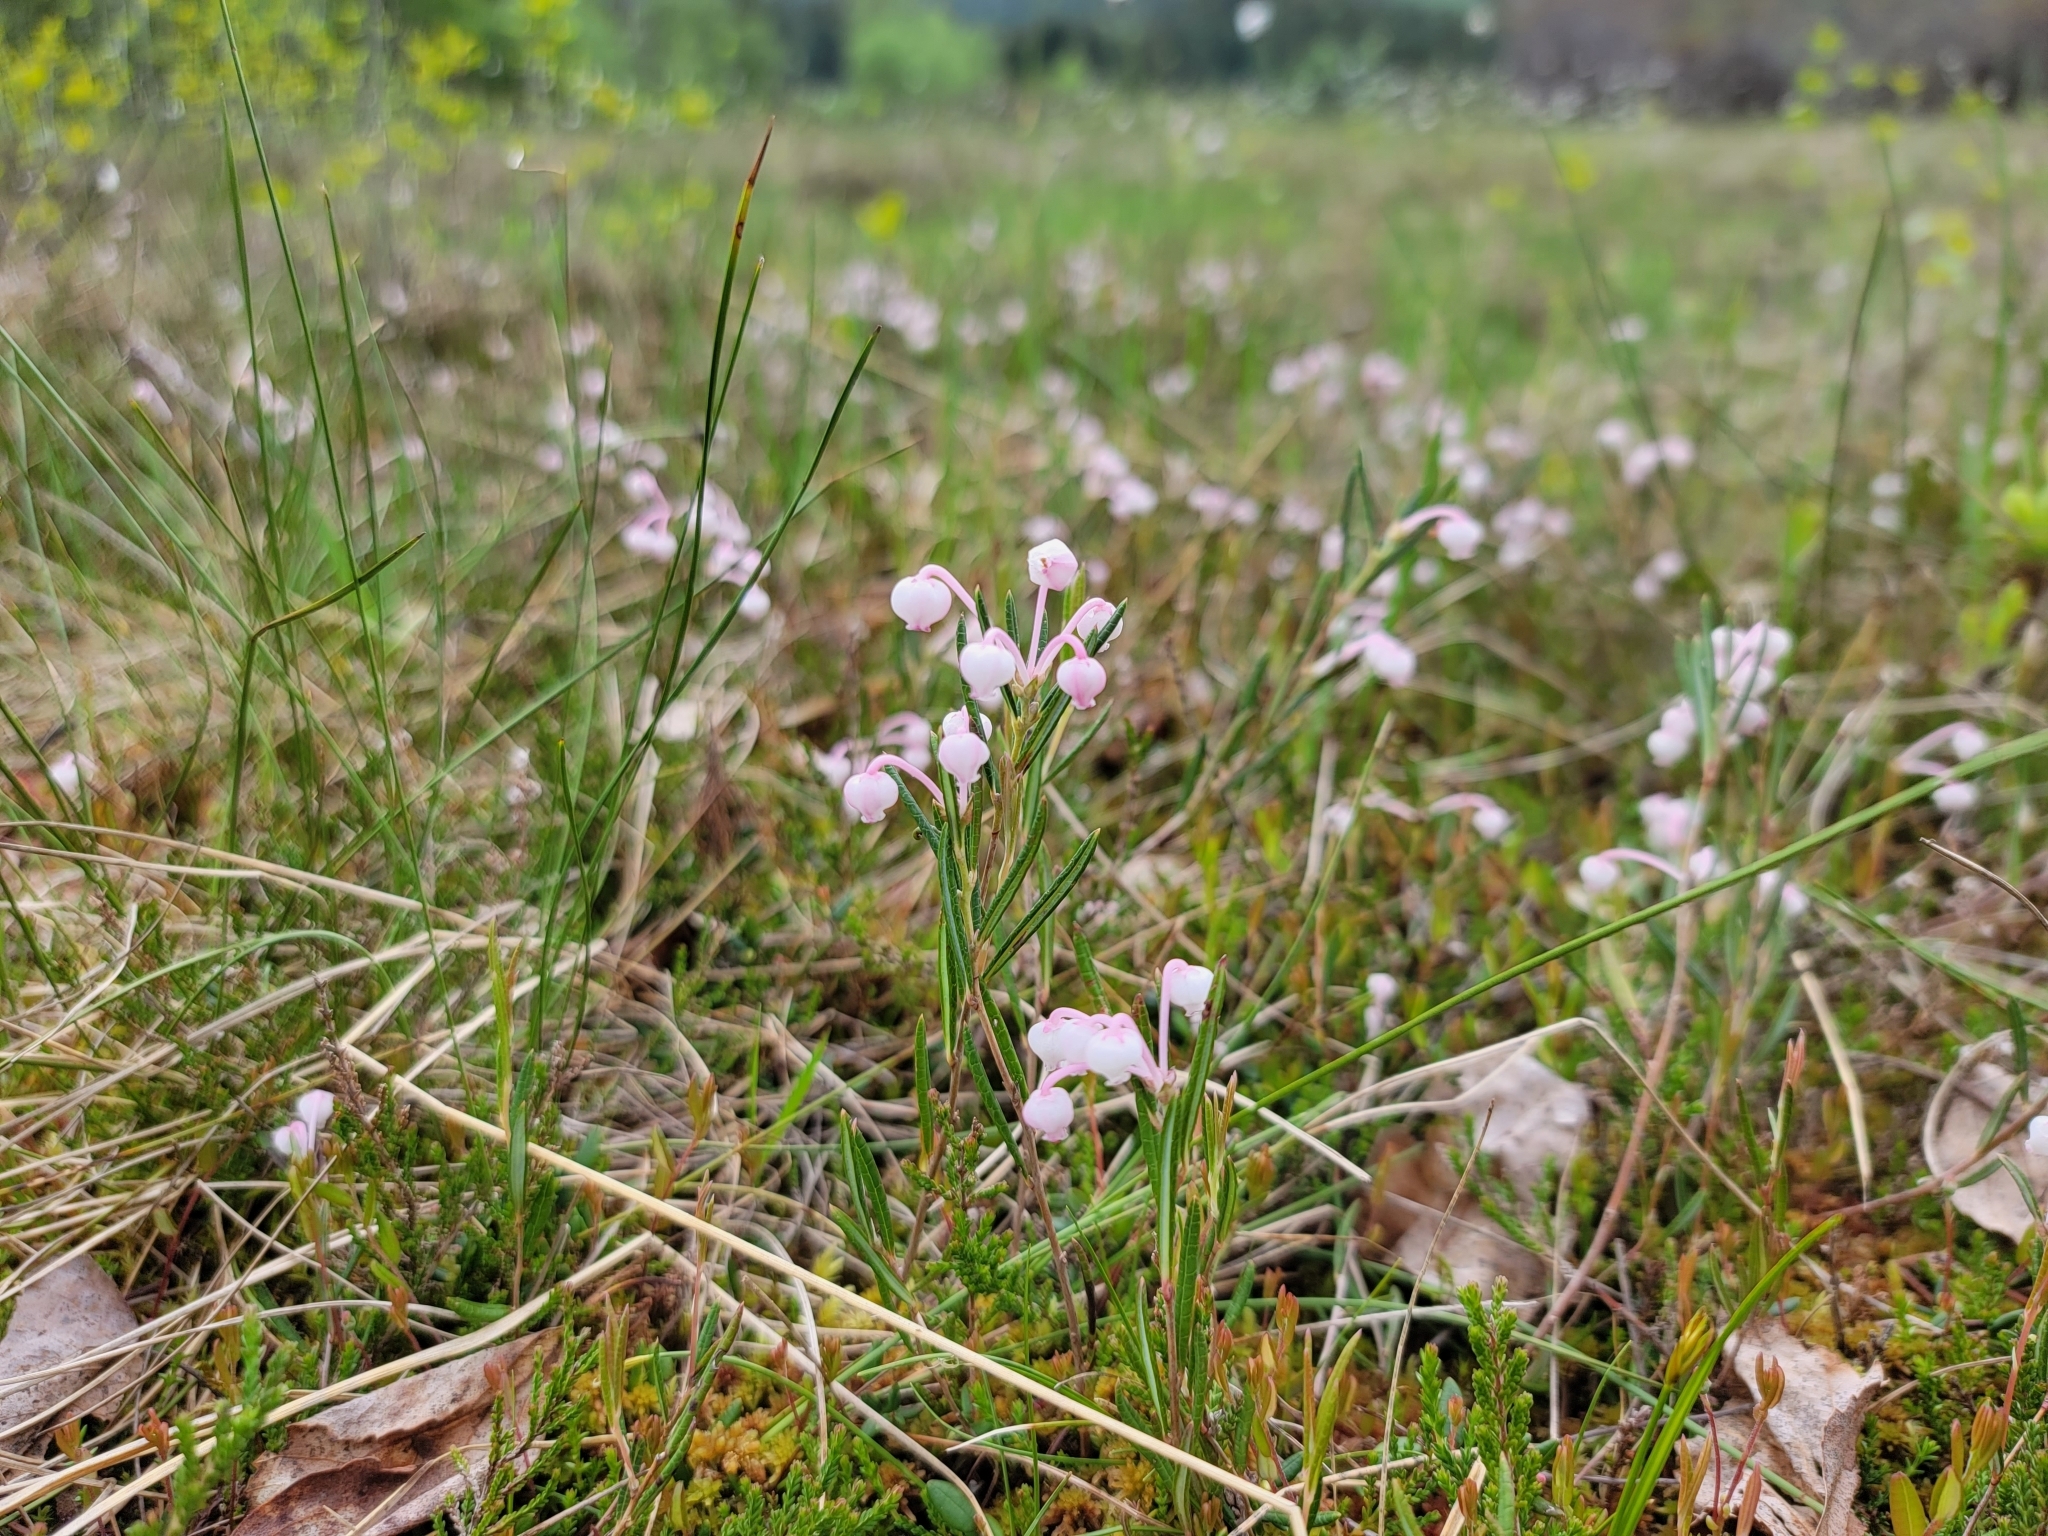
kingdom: Plantae
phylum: Tracheophyta
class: Magnoliopsida
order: Ericales
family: Ericaceae
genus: Andromeda
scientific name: Andromeda polifolia
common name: Bog-rosemary
